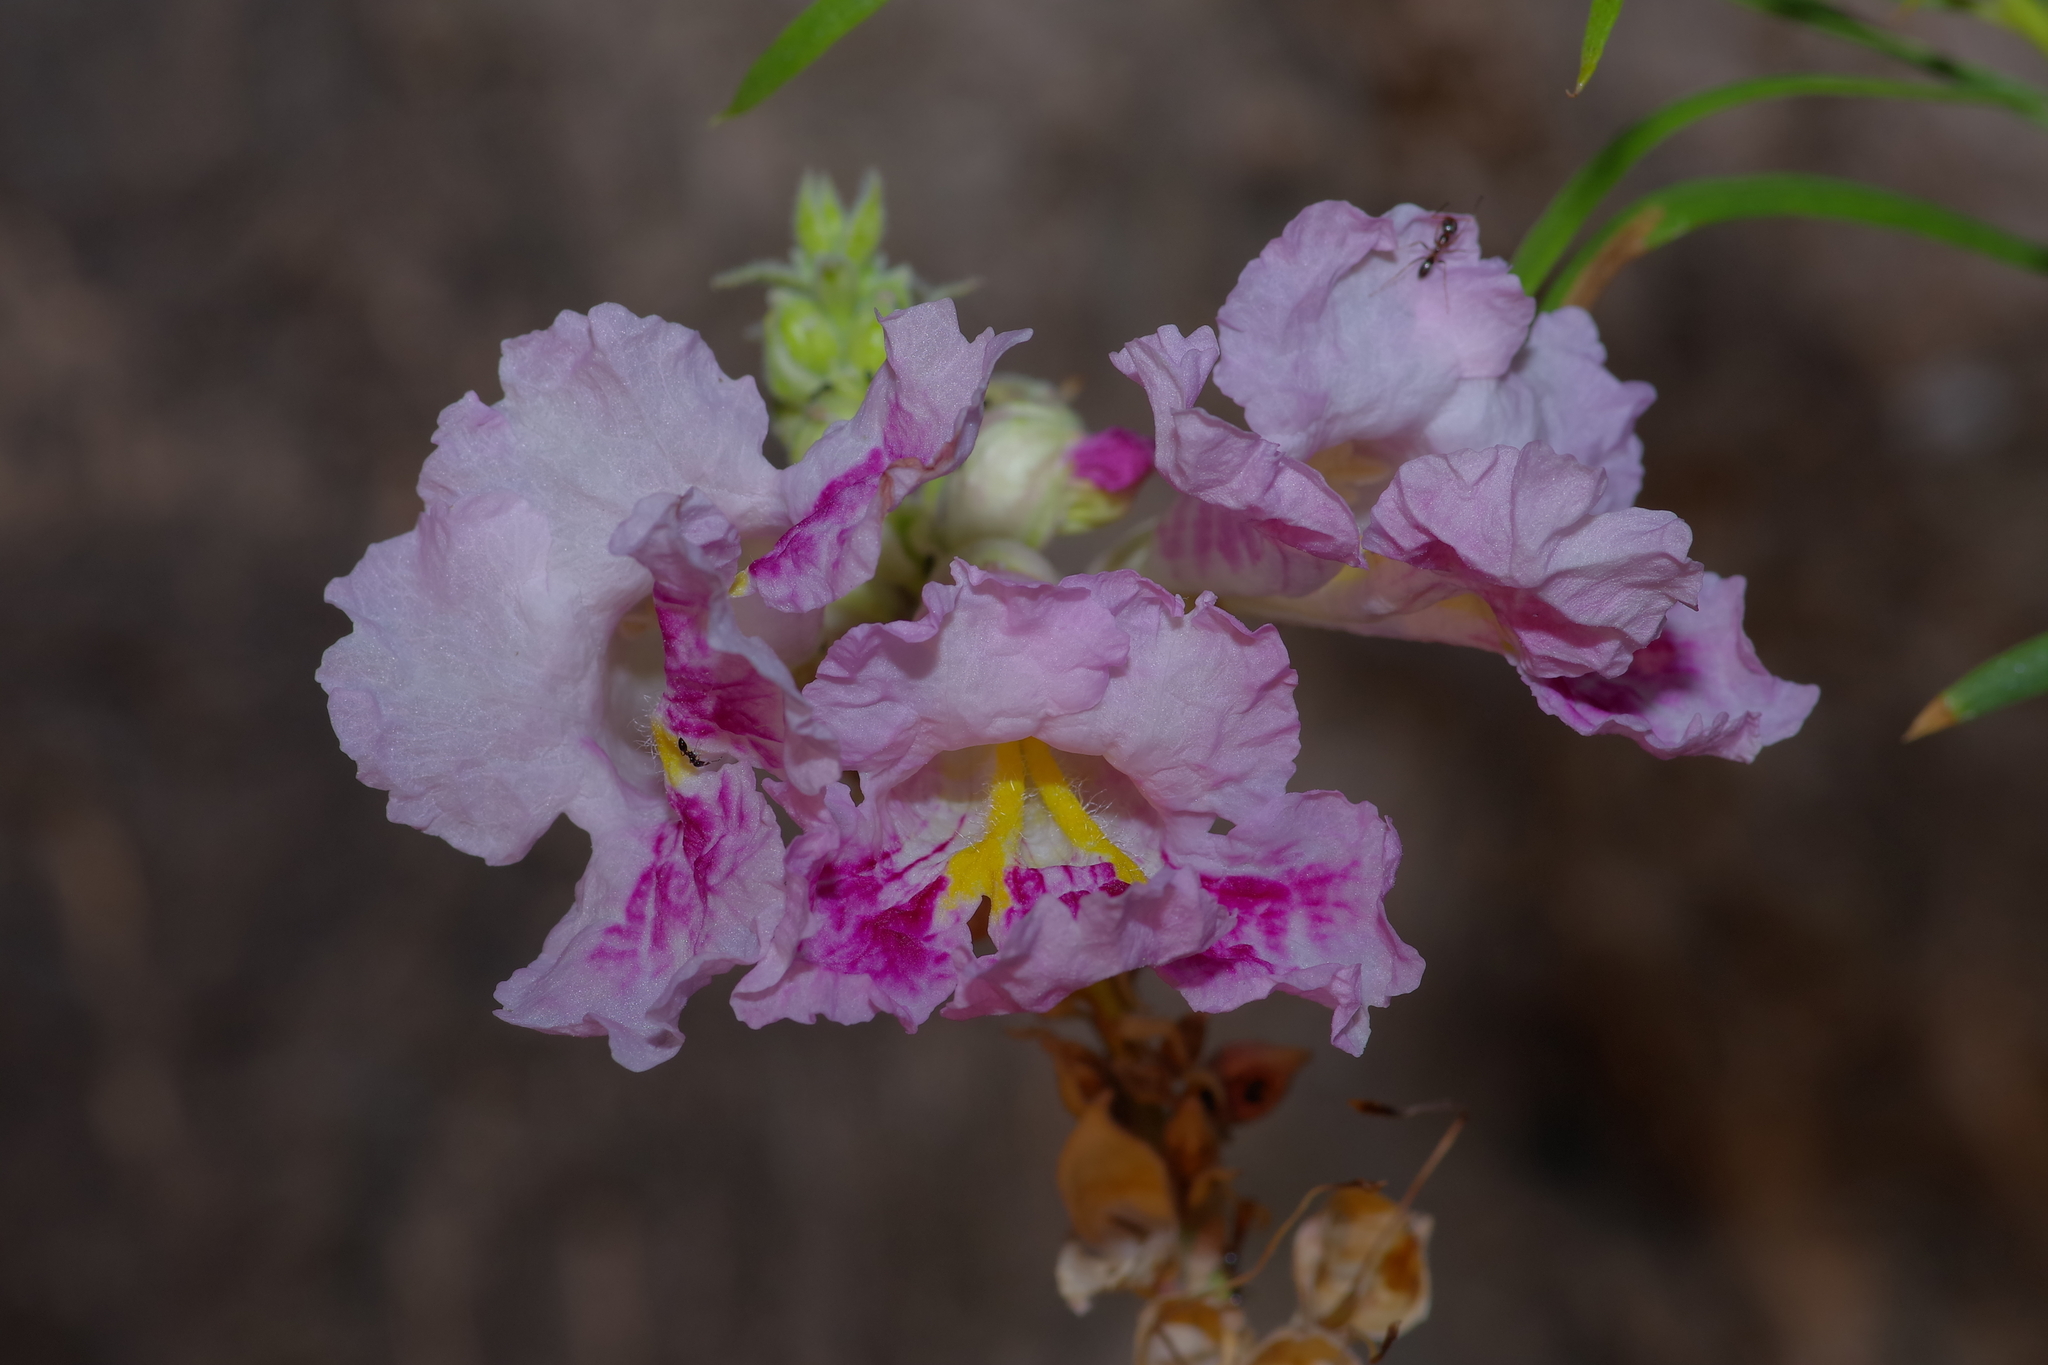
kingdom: Plantae
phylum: Tracheophyta
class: Magnoliopsida
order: Lamiales
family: Bignoniaceae
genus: Chilopsis
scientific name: Chilopsis linearis
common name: Desert-willow
